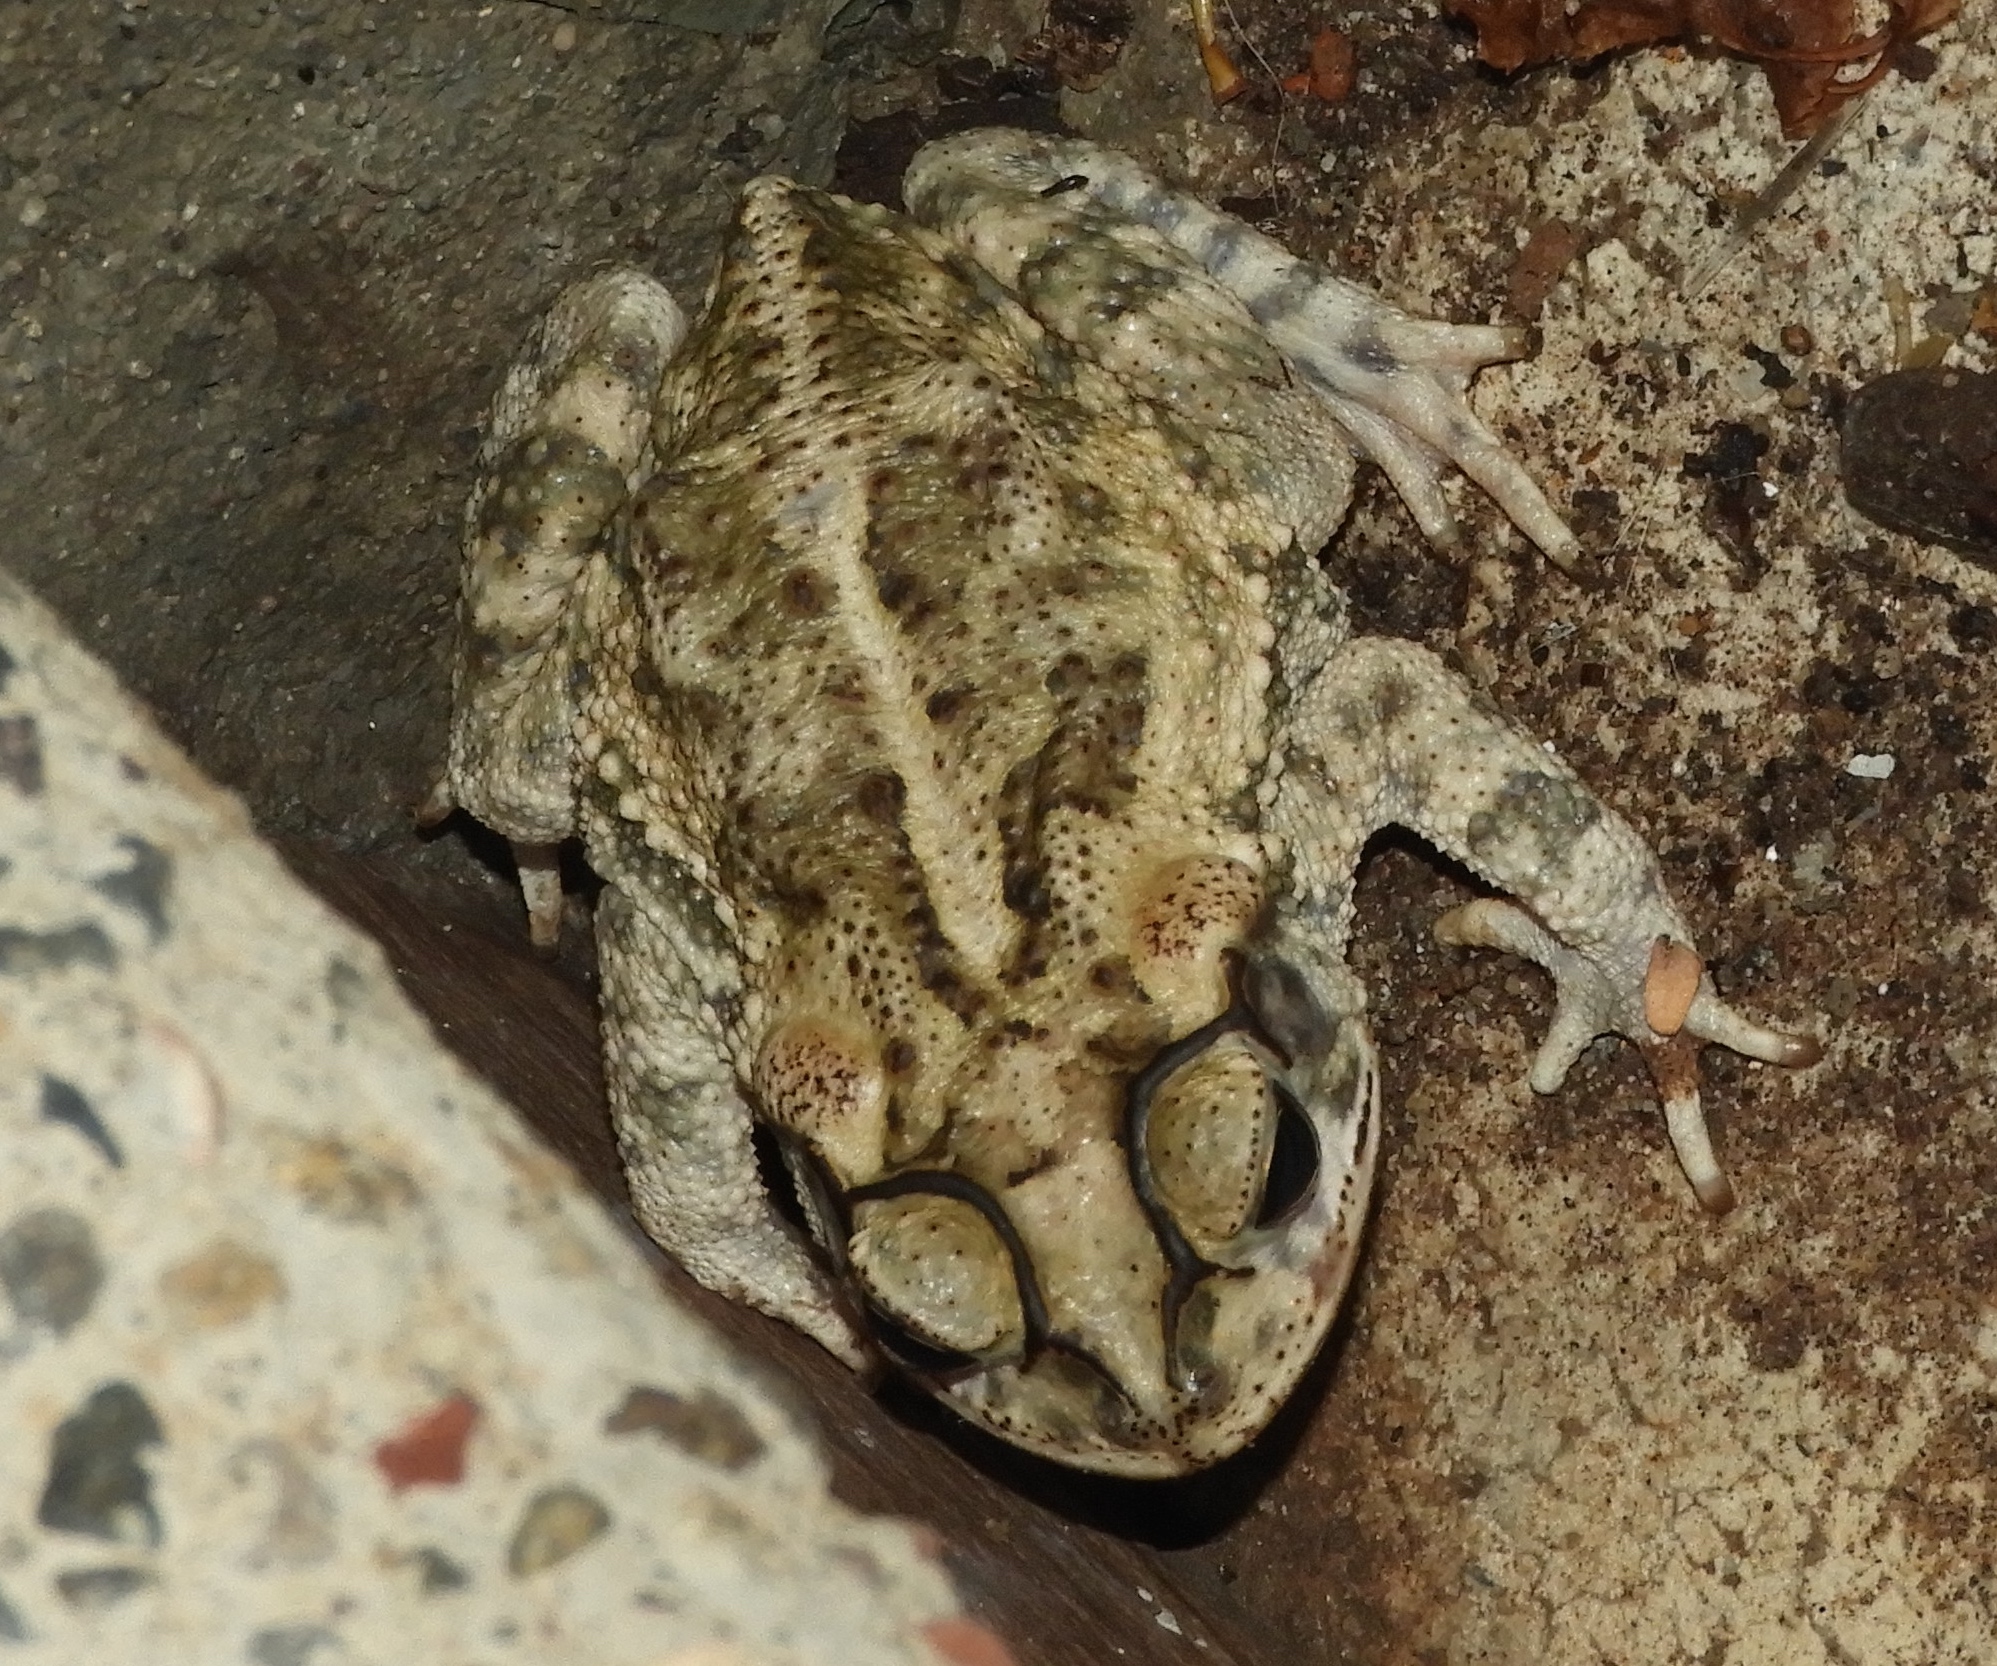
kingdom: Animalia
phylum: Chordata
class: Amphibia
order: Anura
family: Bufonidae
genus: Incilius
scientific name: Incilius mazatlanensis
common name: Sinaloa toad
